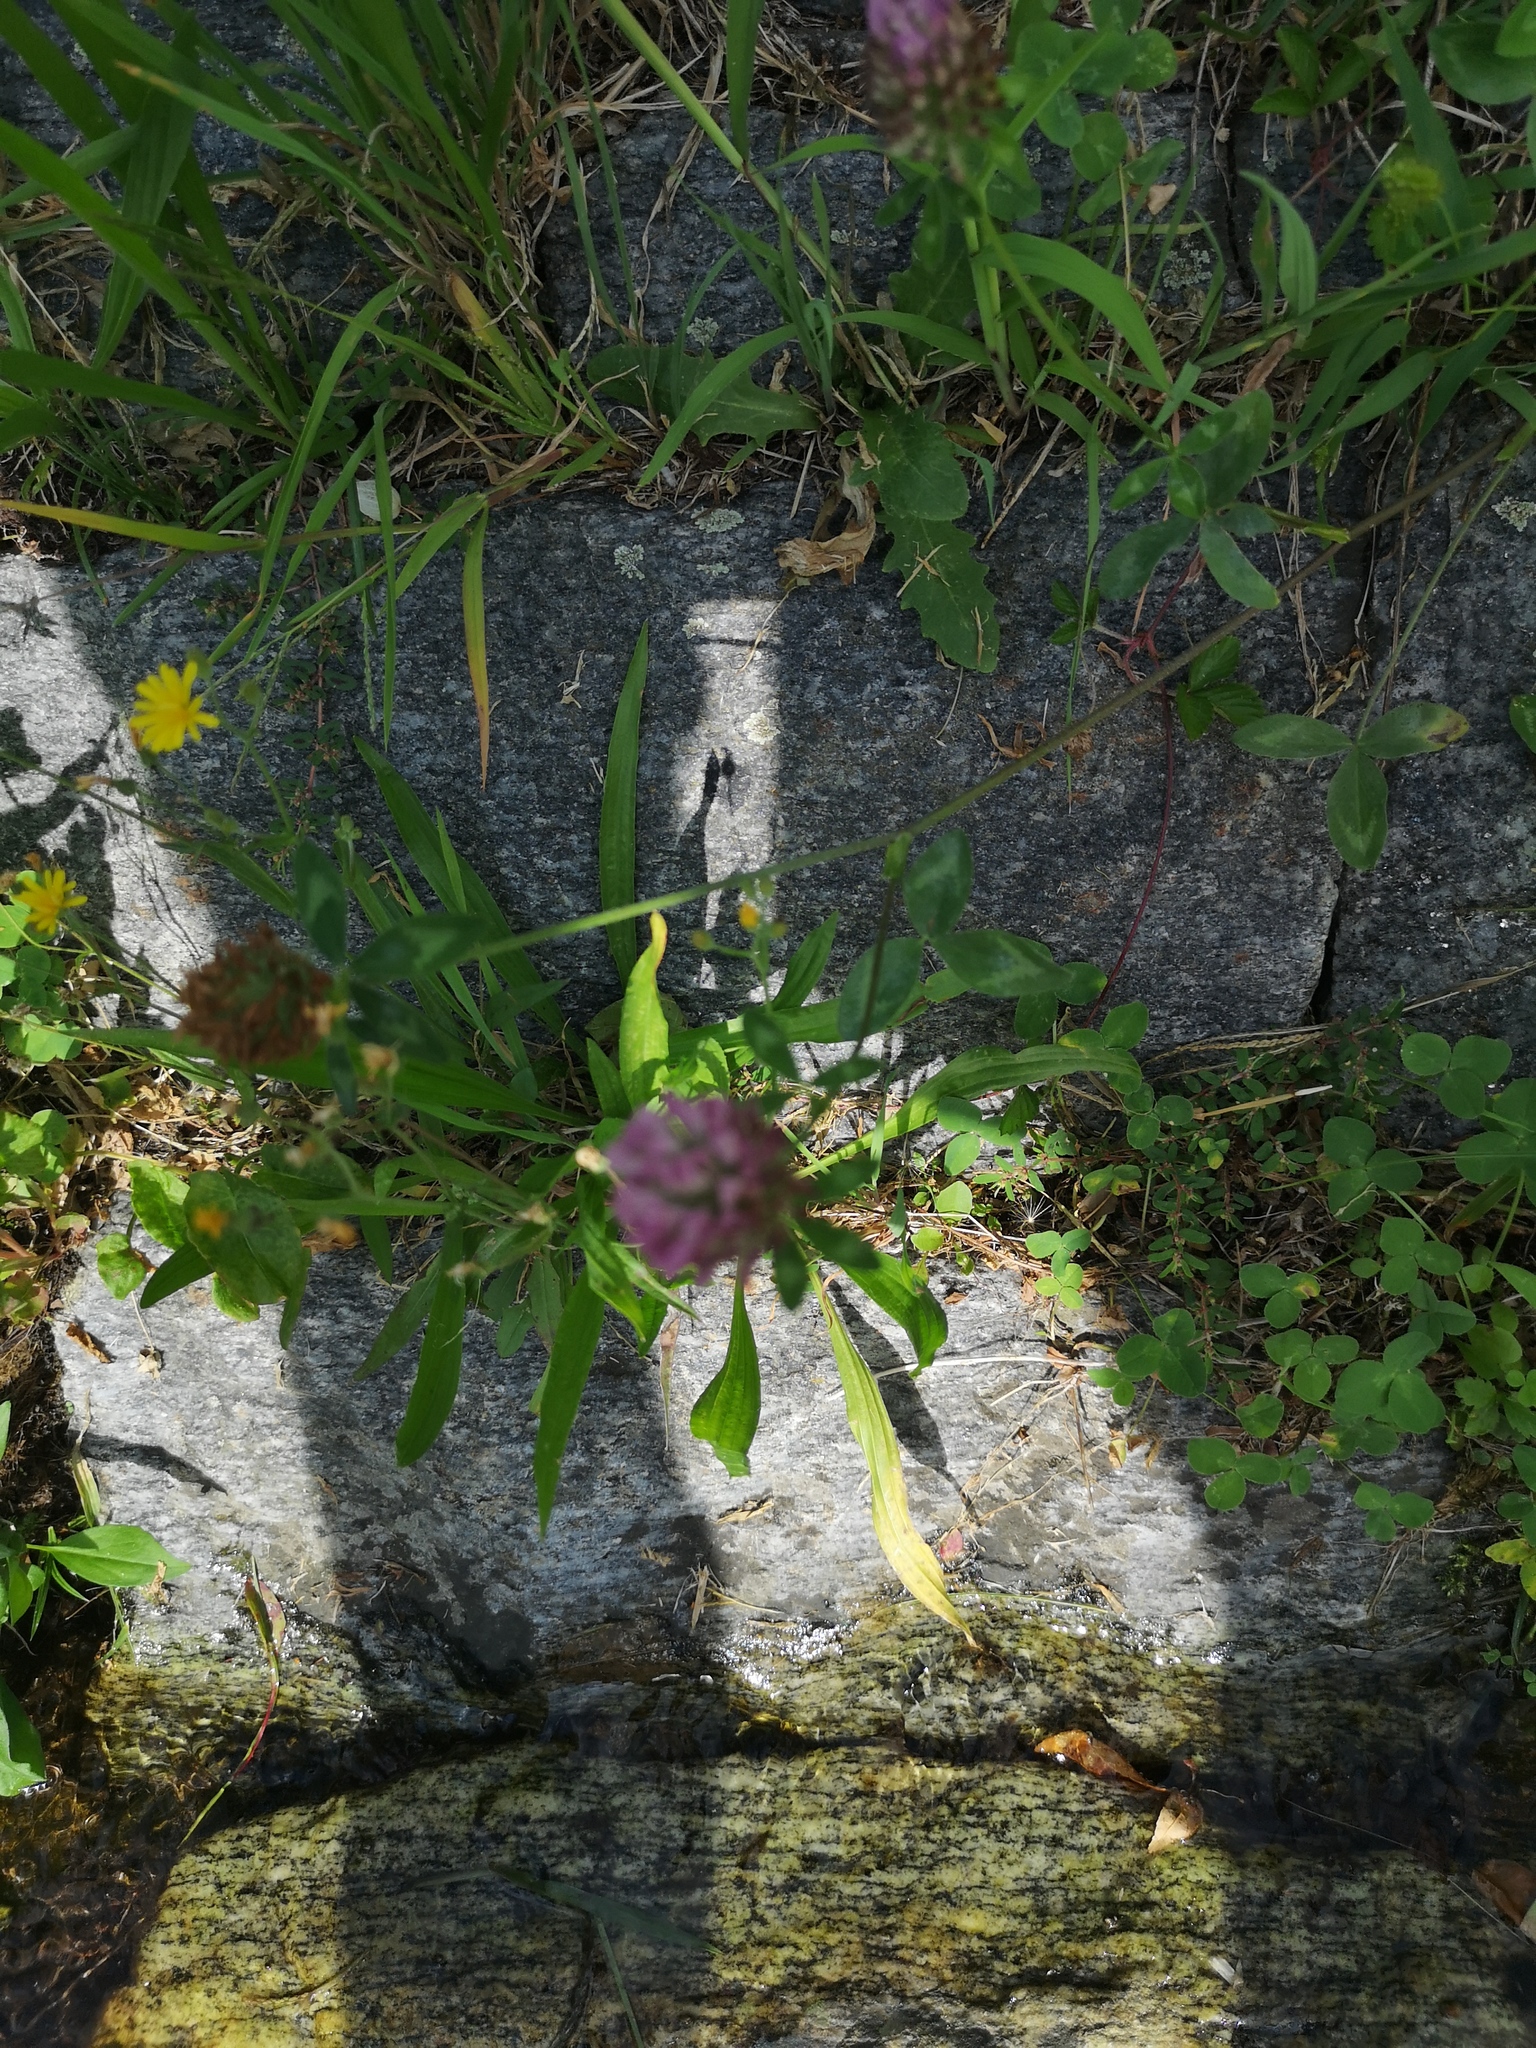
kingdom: Plantae
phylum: Tracheophyta
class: Magnoliopsida
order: Fabales
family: Fabaceae
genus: Trifolium
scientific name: Trifolium pratense
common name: Red clover
